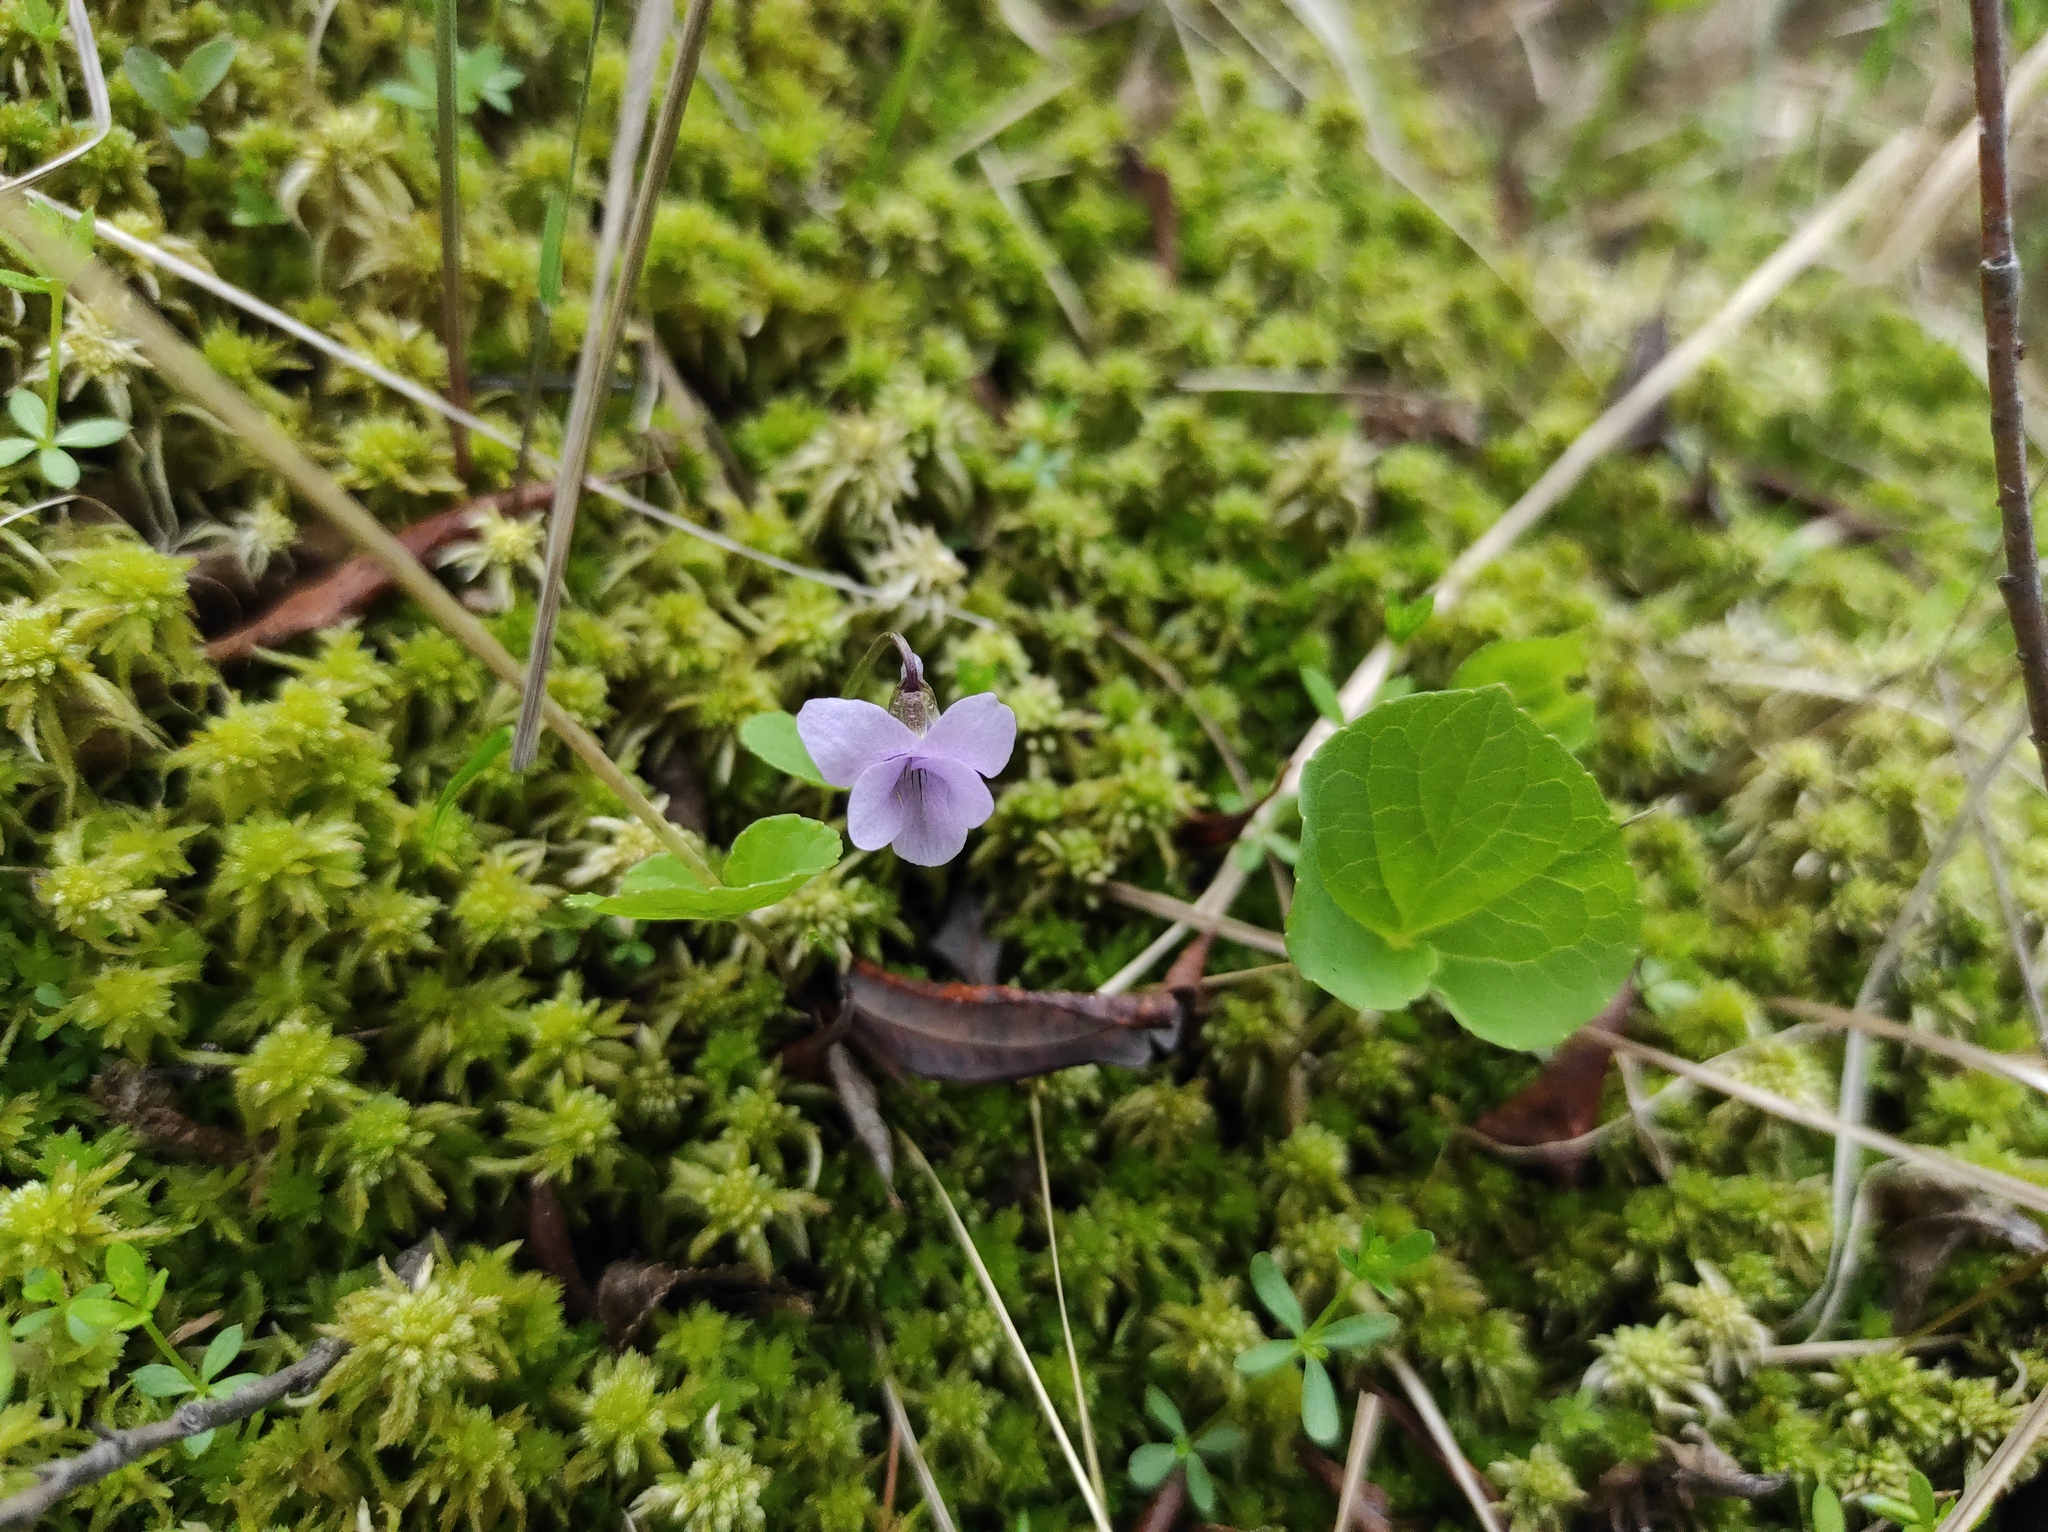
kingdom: Plantae
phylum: Tracheophyta
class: Magnoliopsida
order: Malpighiales
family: Violaceae
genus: Viola
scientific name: Viola epipsila
